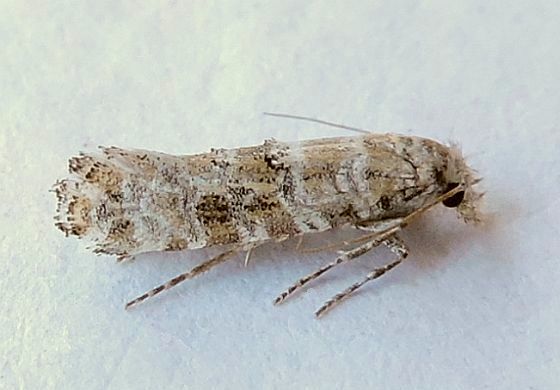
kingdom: Animalia
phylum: Arthropoda
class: Insecta
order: Lepidoptera
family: Tineidae
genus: Xylesthia
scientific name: Xylesthia albicans
